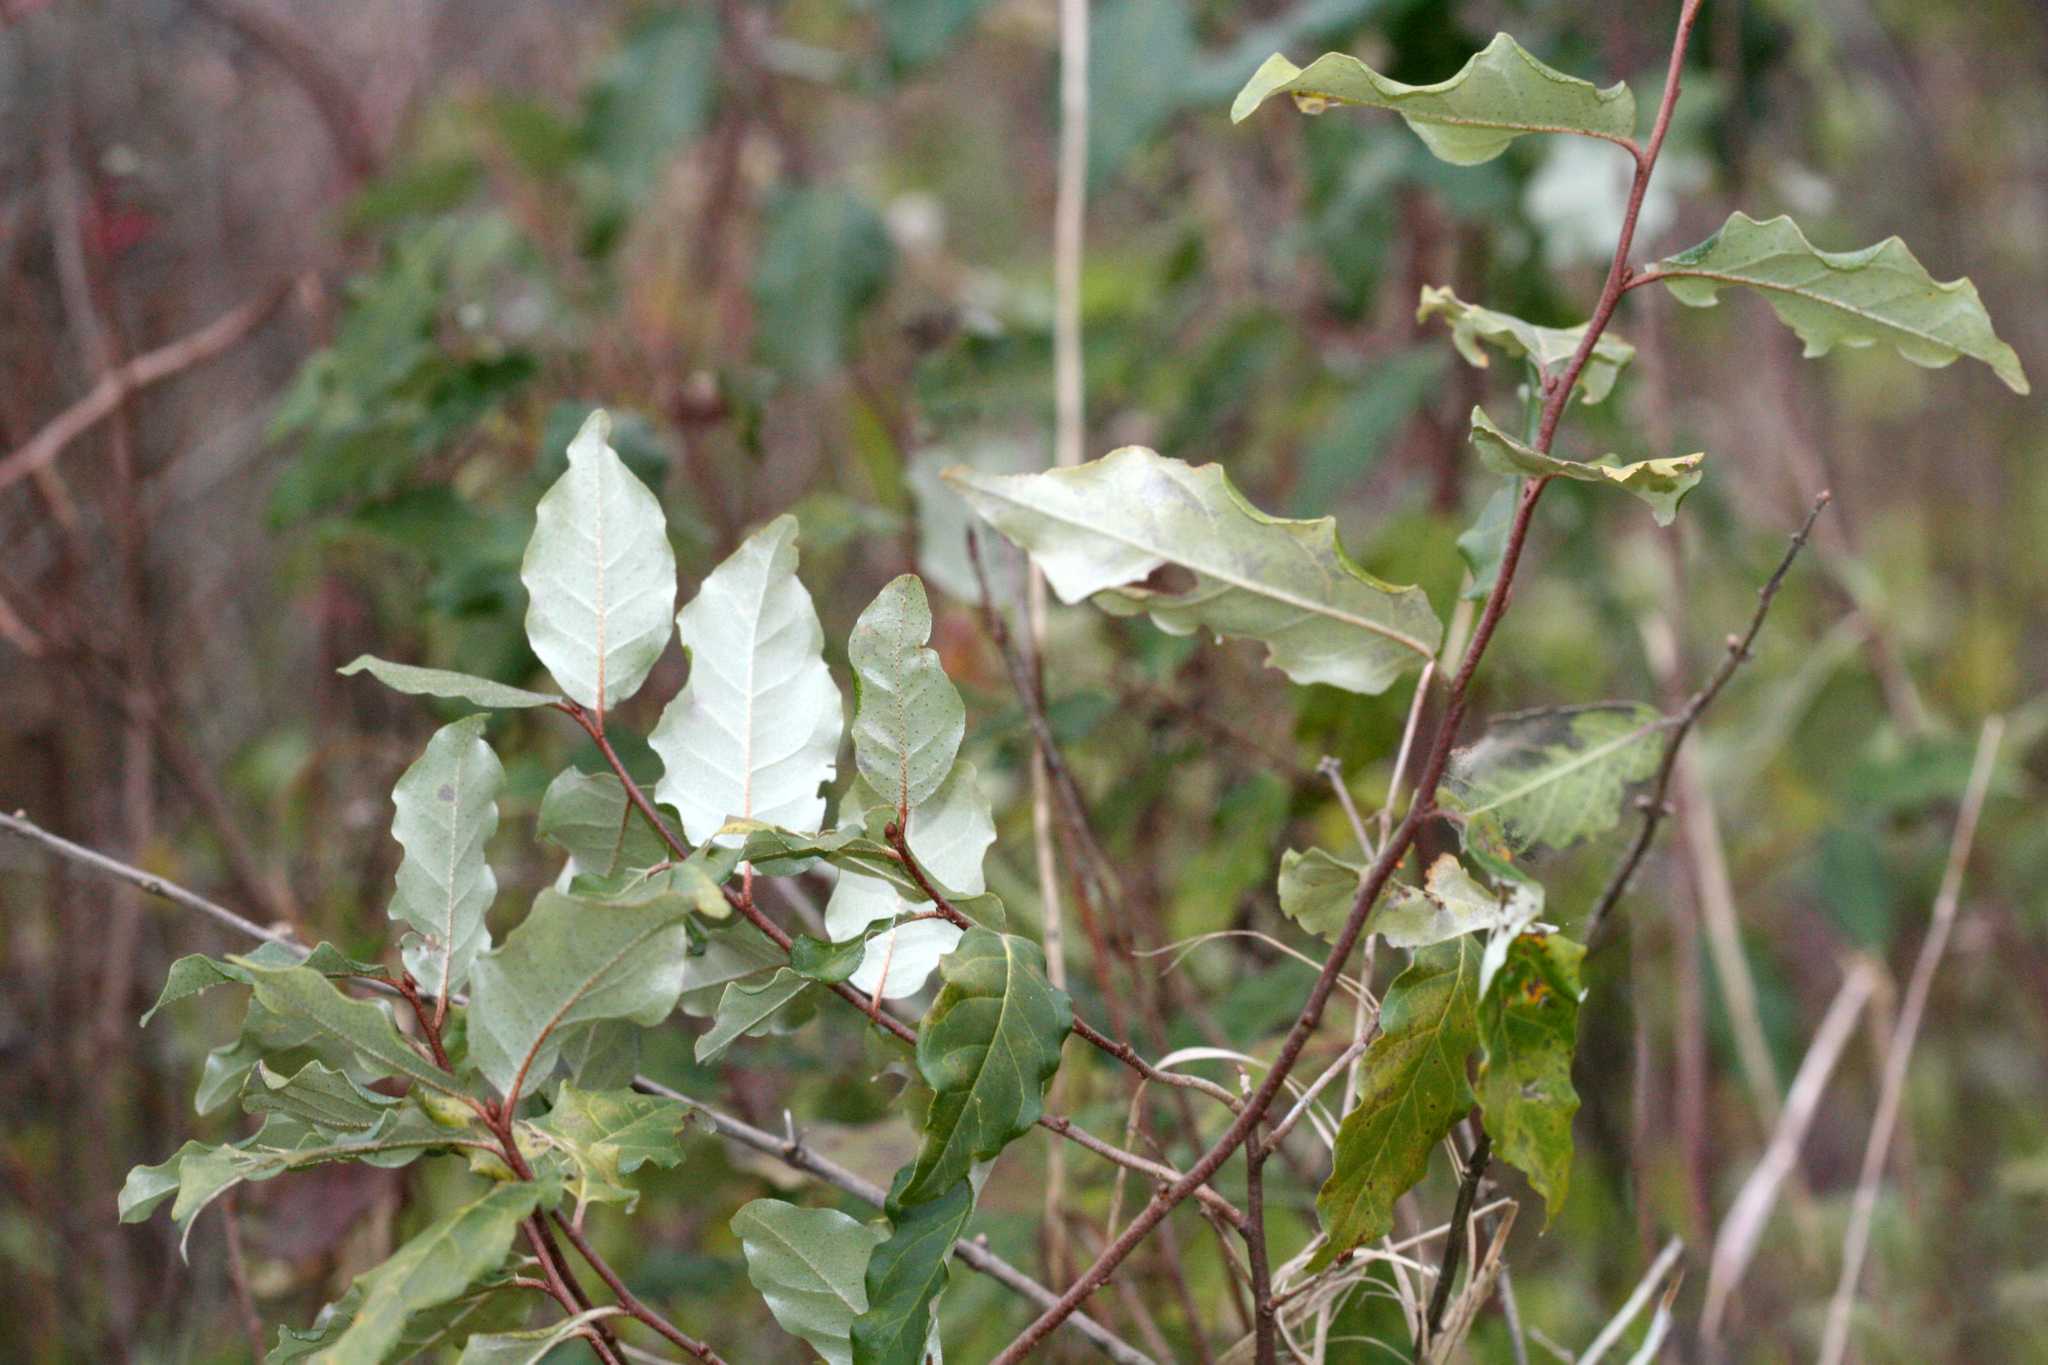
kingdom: Plantae
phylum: Tracheophyta
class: Magnoliopsida
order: Rosales
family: Elaeagnaceae
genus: Elaeagnus
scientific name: Elaeagnus umbellata
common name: Autumn olive
